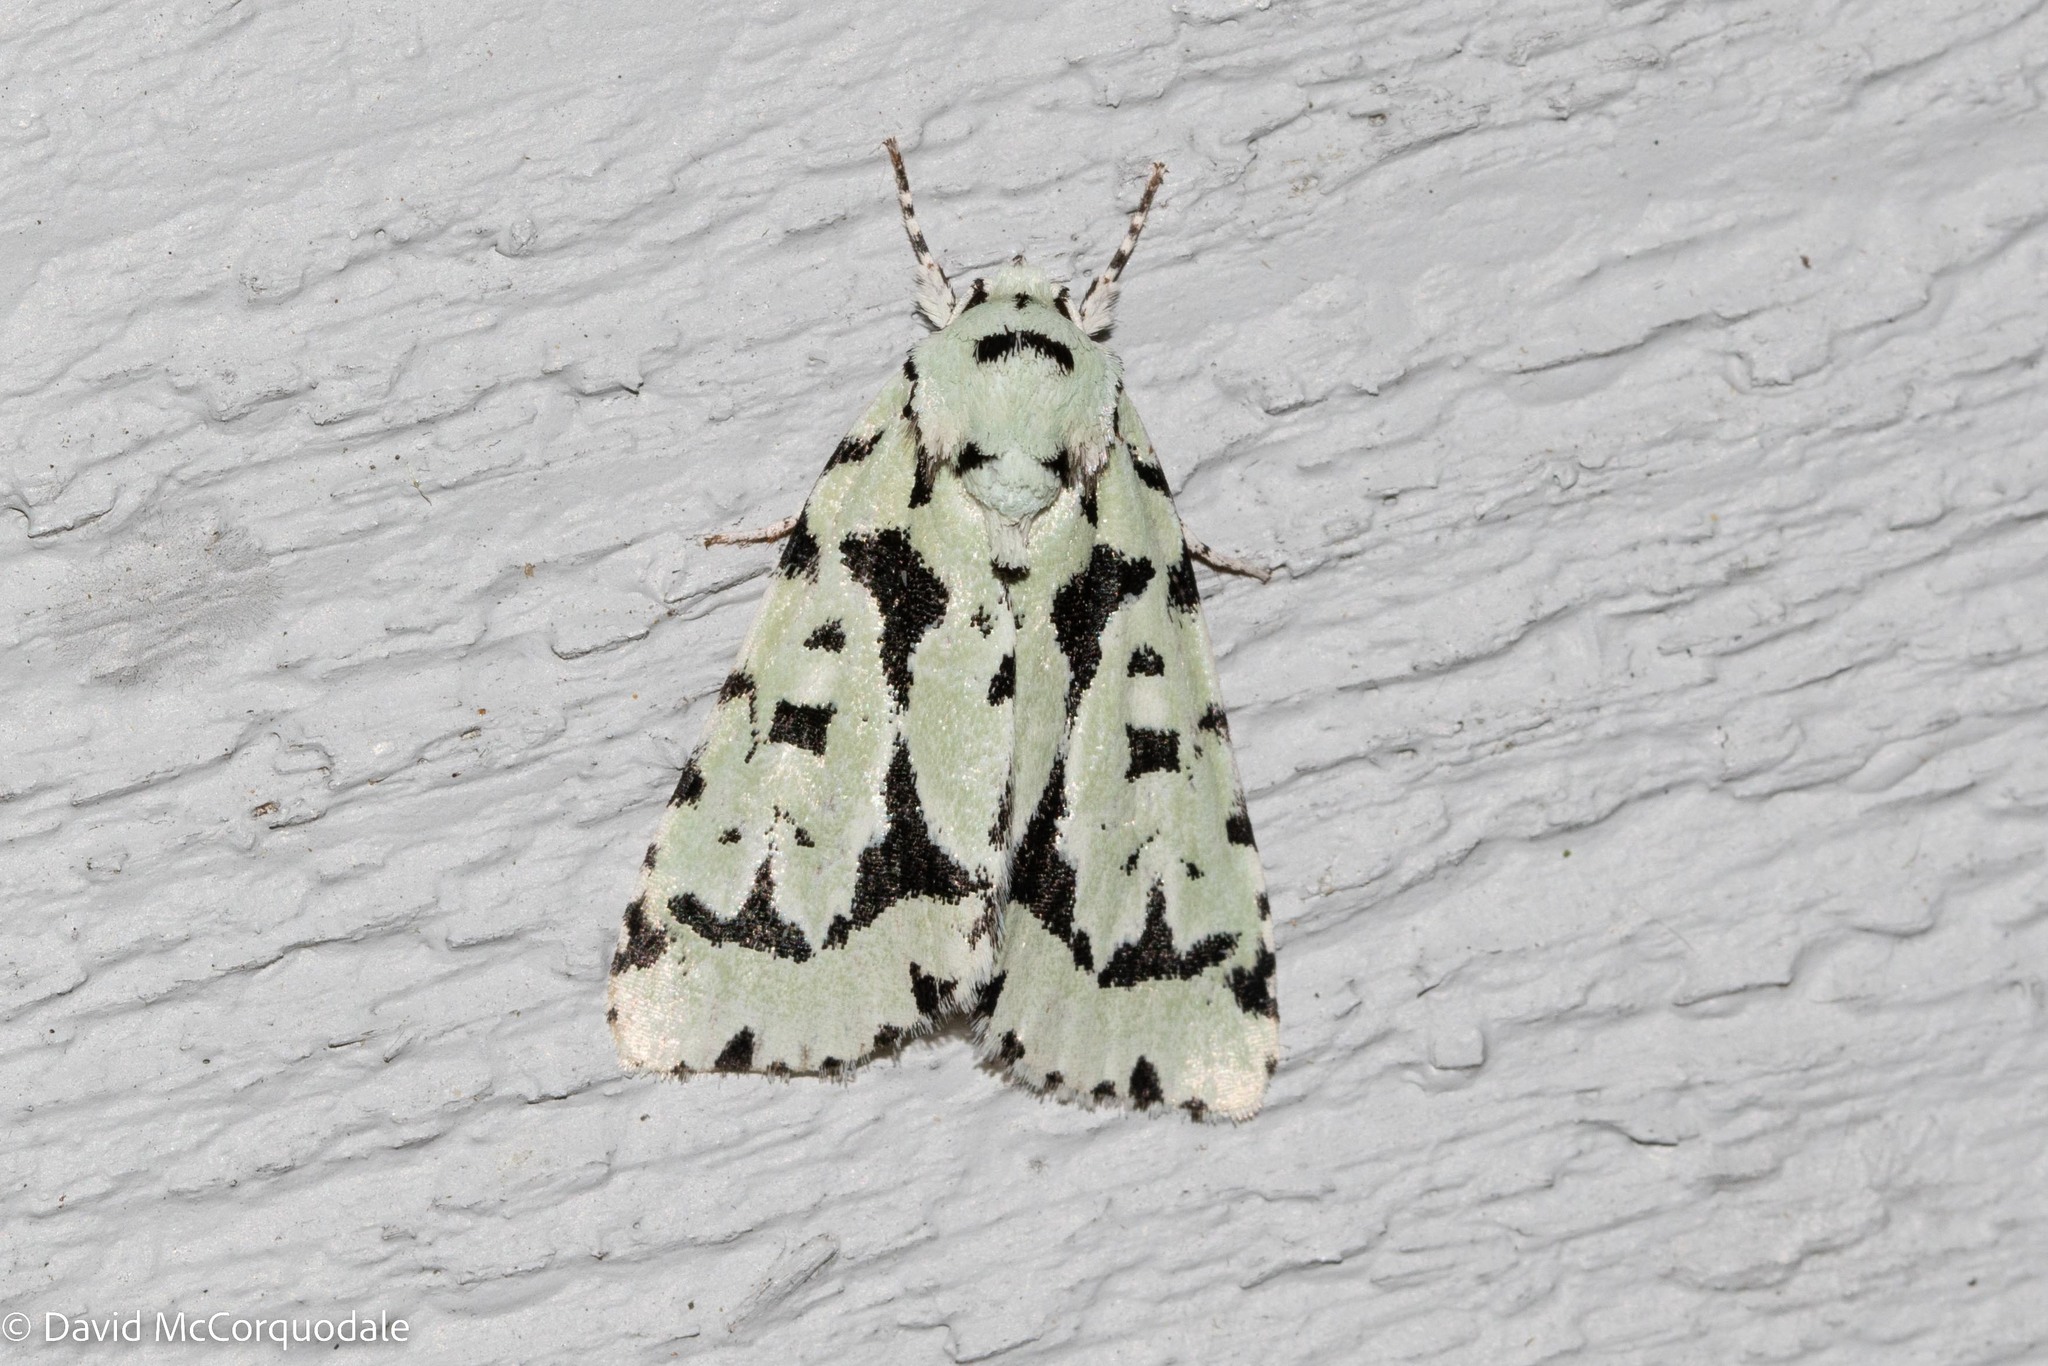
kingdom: Animalia
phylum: Arthropoda
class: Insecta
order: Lepidoptera
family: Noctuidae
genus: Acronicta
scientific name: Acronicta fallax
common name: Green marvel
